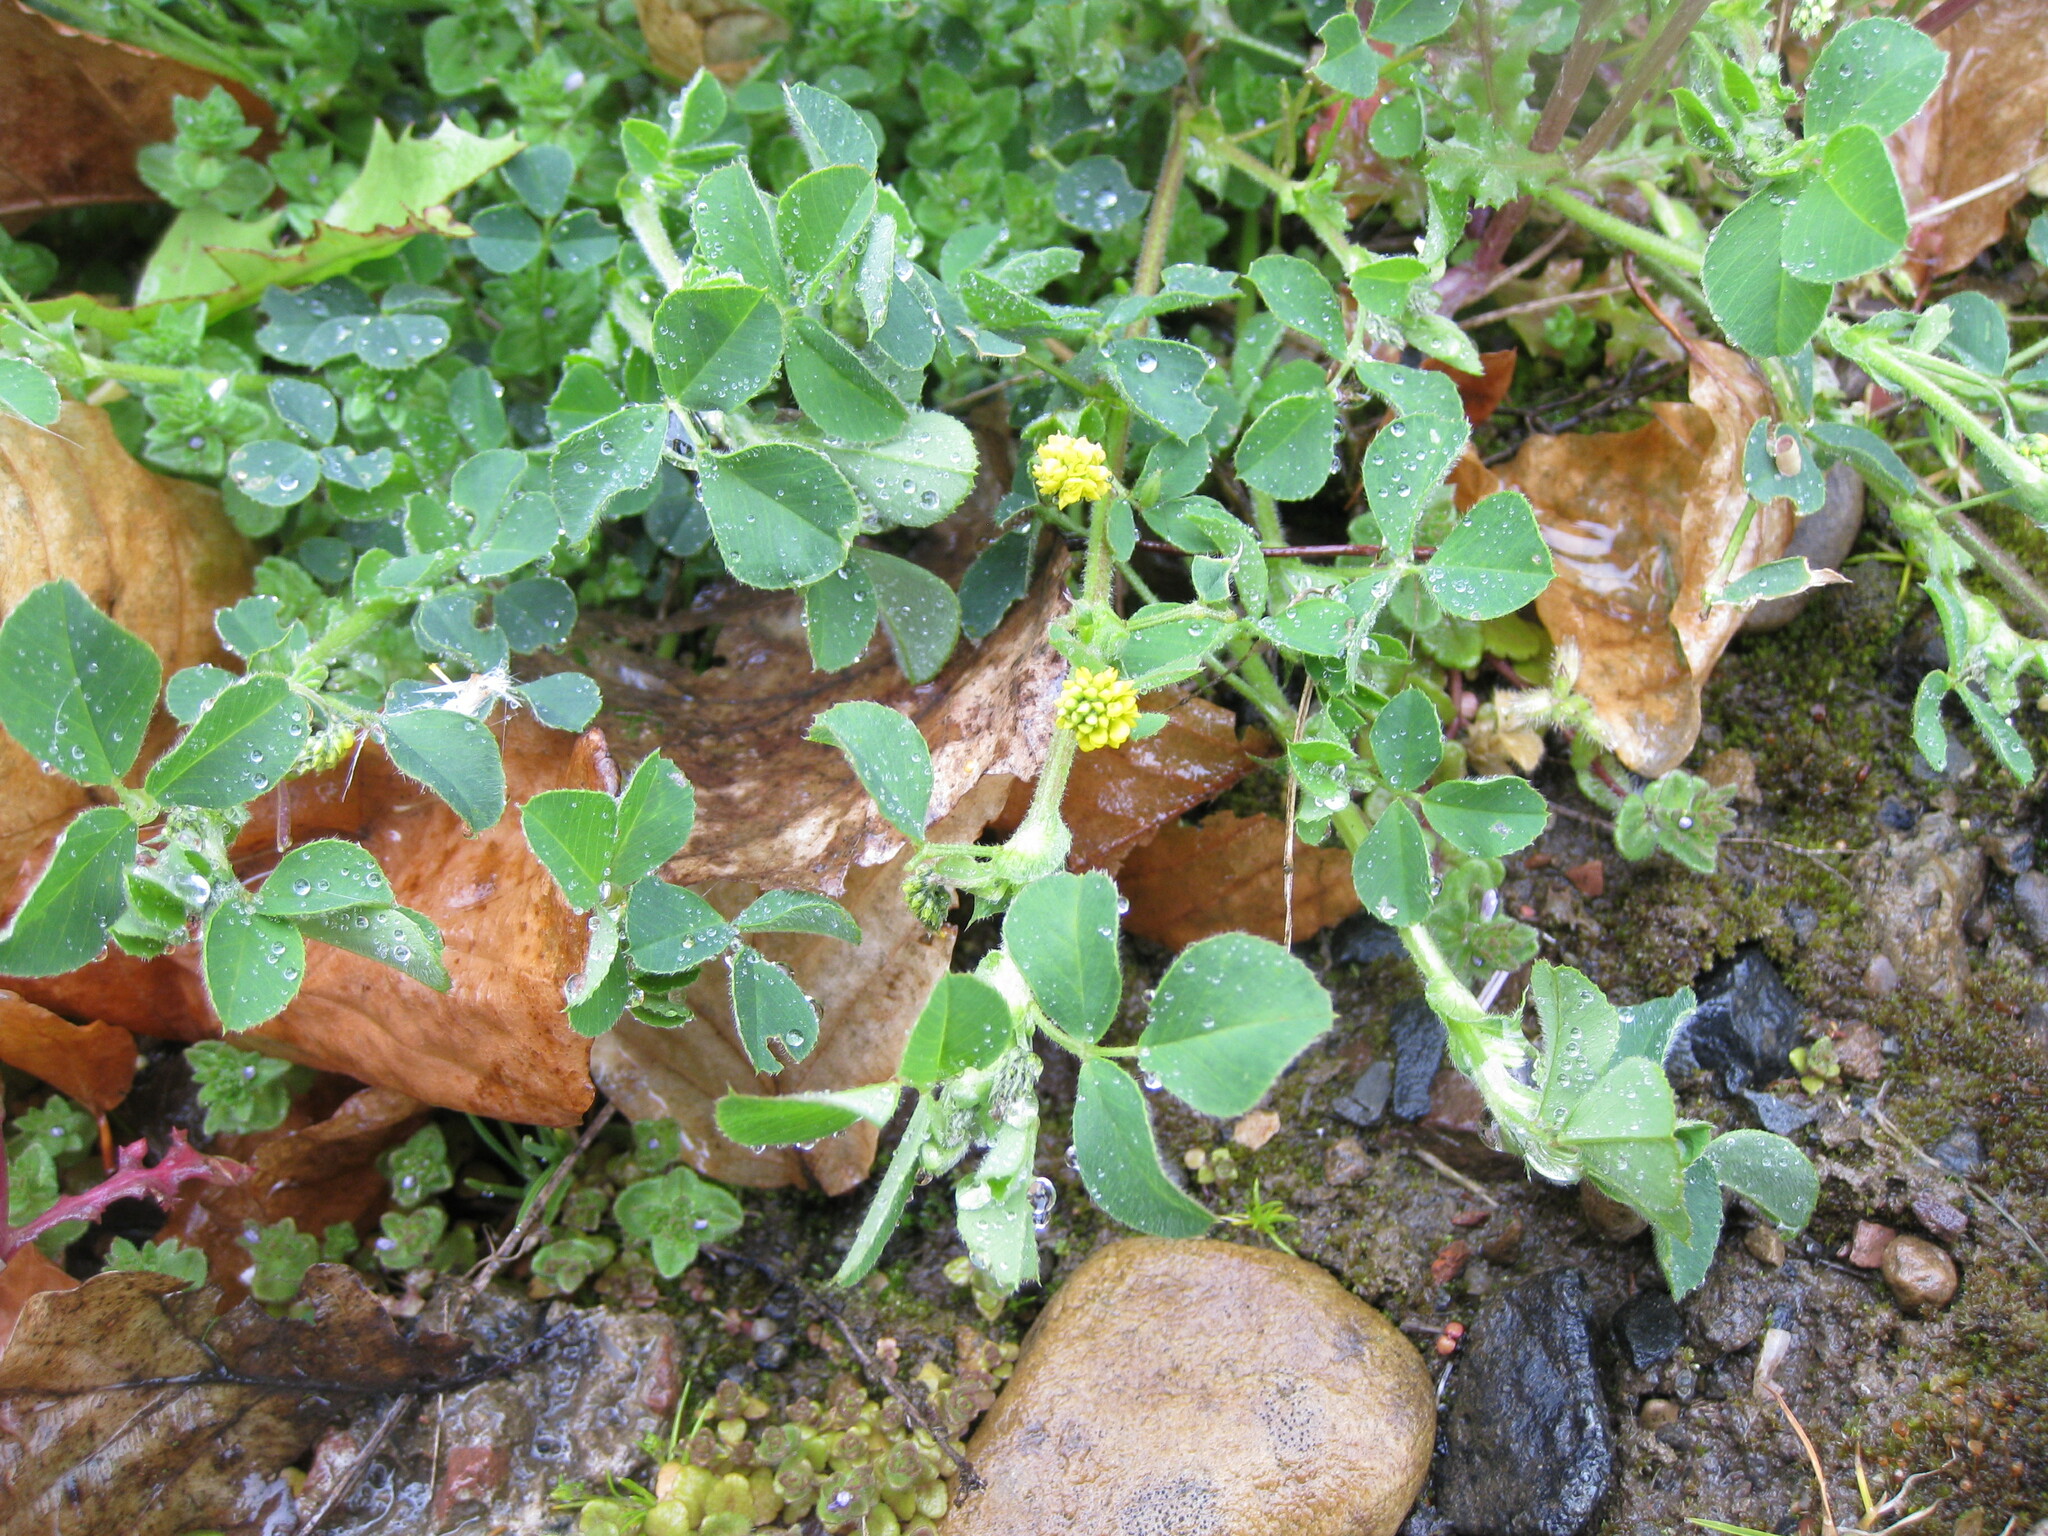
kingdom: Plantae
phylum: Tracheophyta
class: Magnoliopsida
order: Fabales
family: Fabaceae
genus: Medicago
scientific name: Medicago lupulina
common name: Black medick
